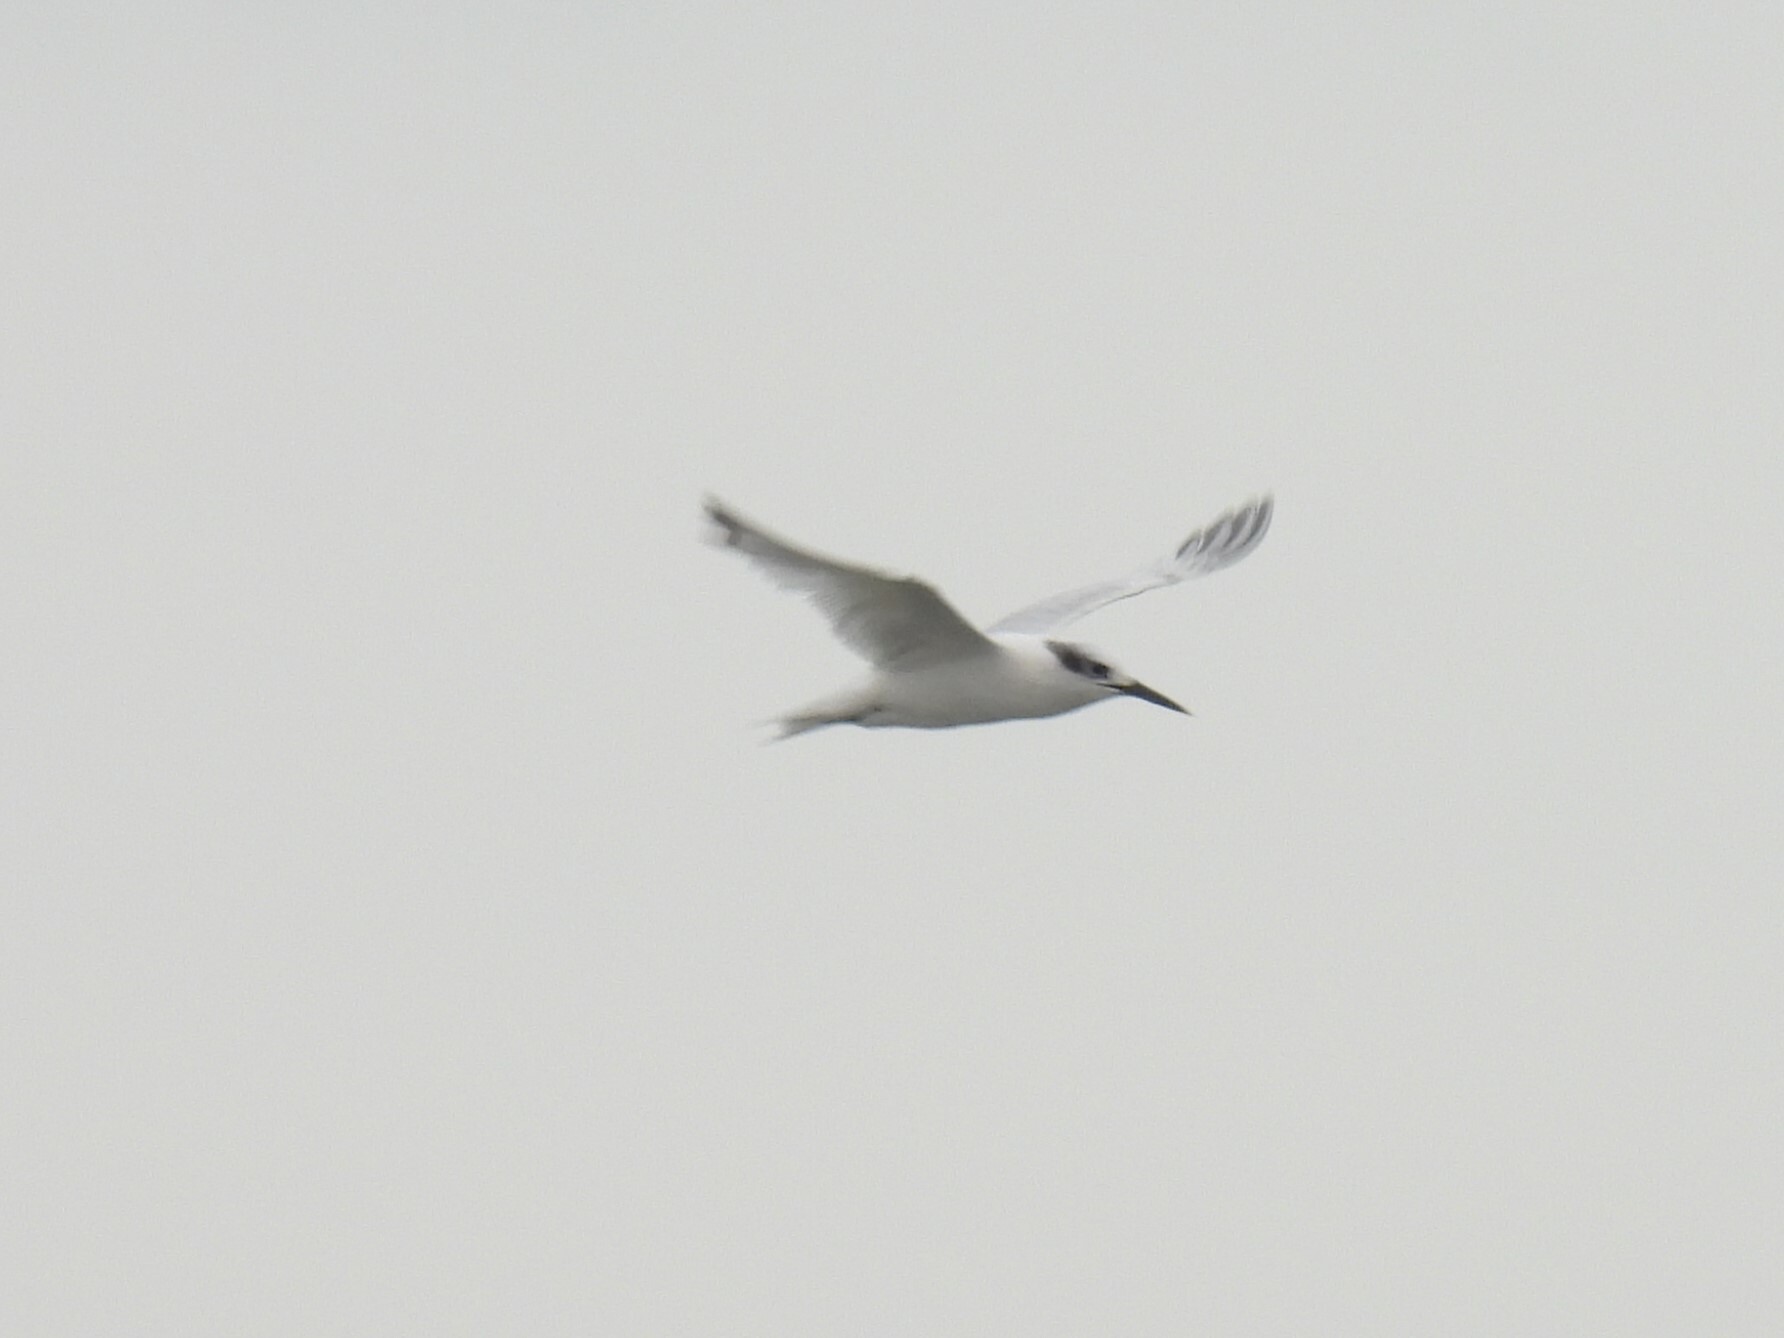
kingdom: Animalia
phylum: Chordata
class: Aves
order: Charadriiformes
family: Laridae
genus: Sterna
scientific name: Sterna forsteri
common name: Forster's tern
